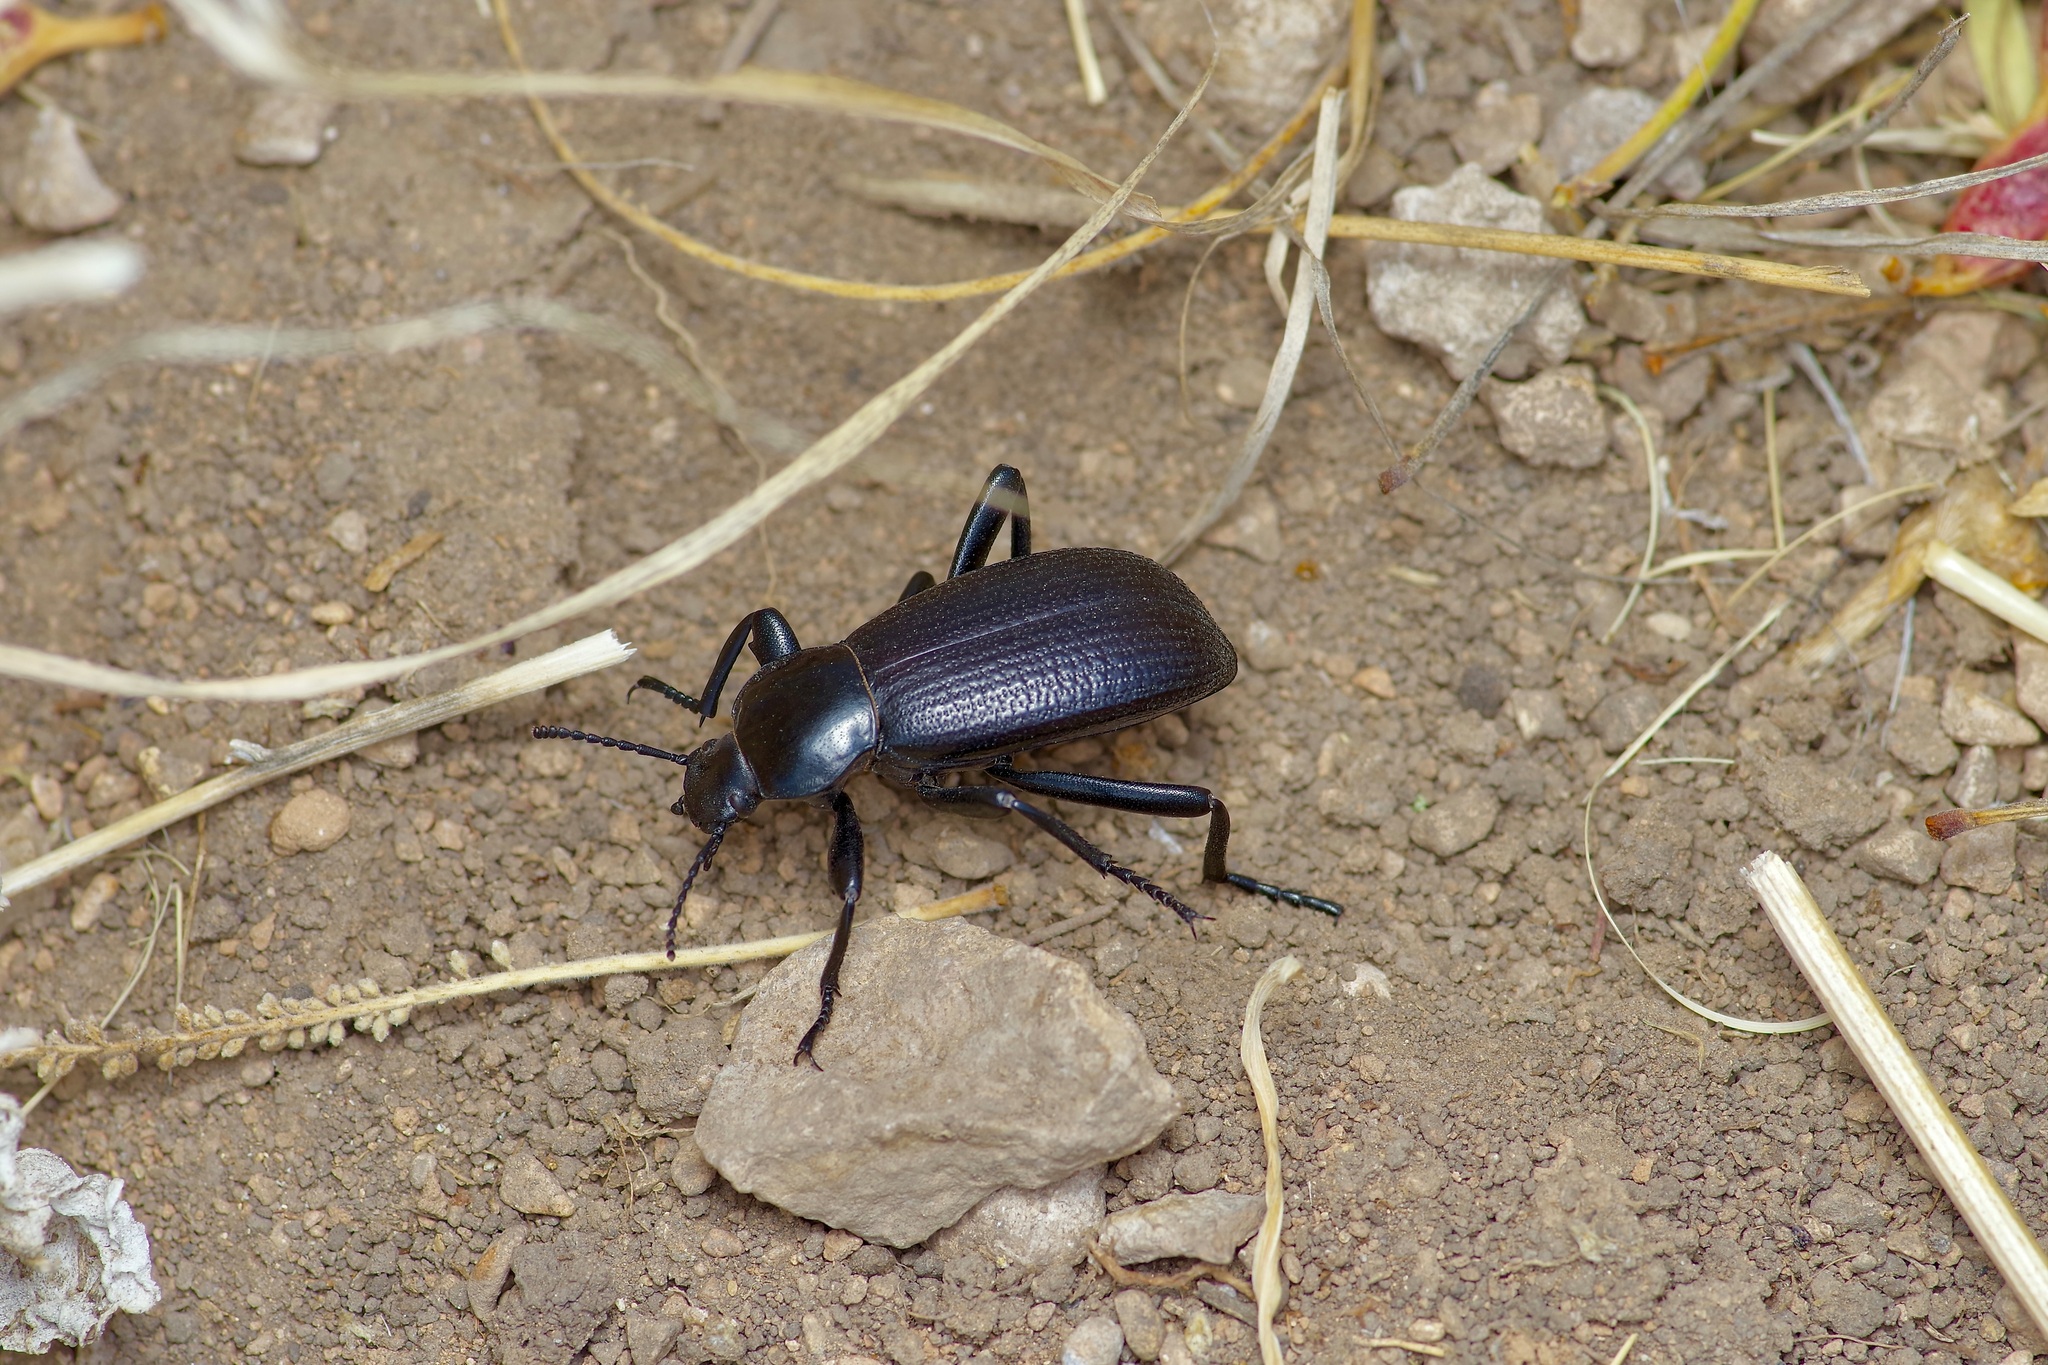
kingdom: Animalia
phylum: Arthropoda
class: Insecta
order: Coleoptera
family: Tenebrionidae
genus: Eleodes
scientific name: Eleodes obscura
